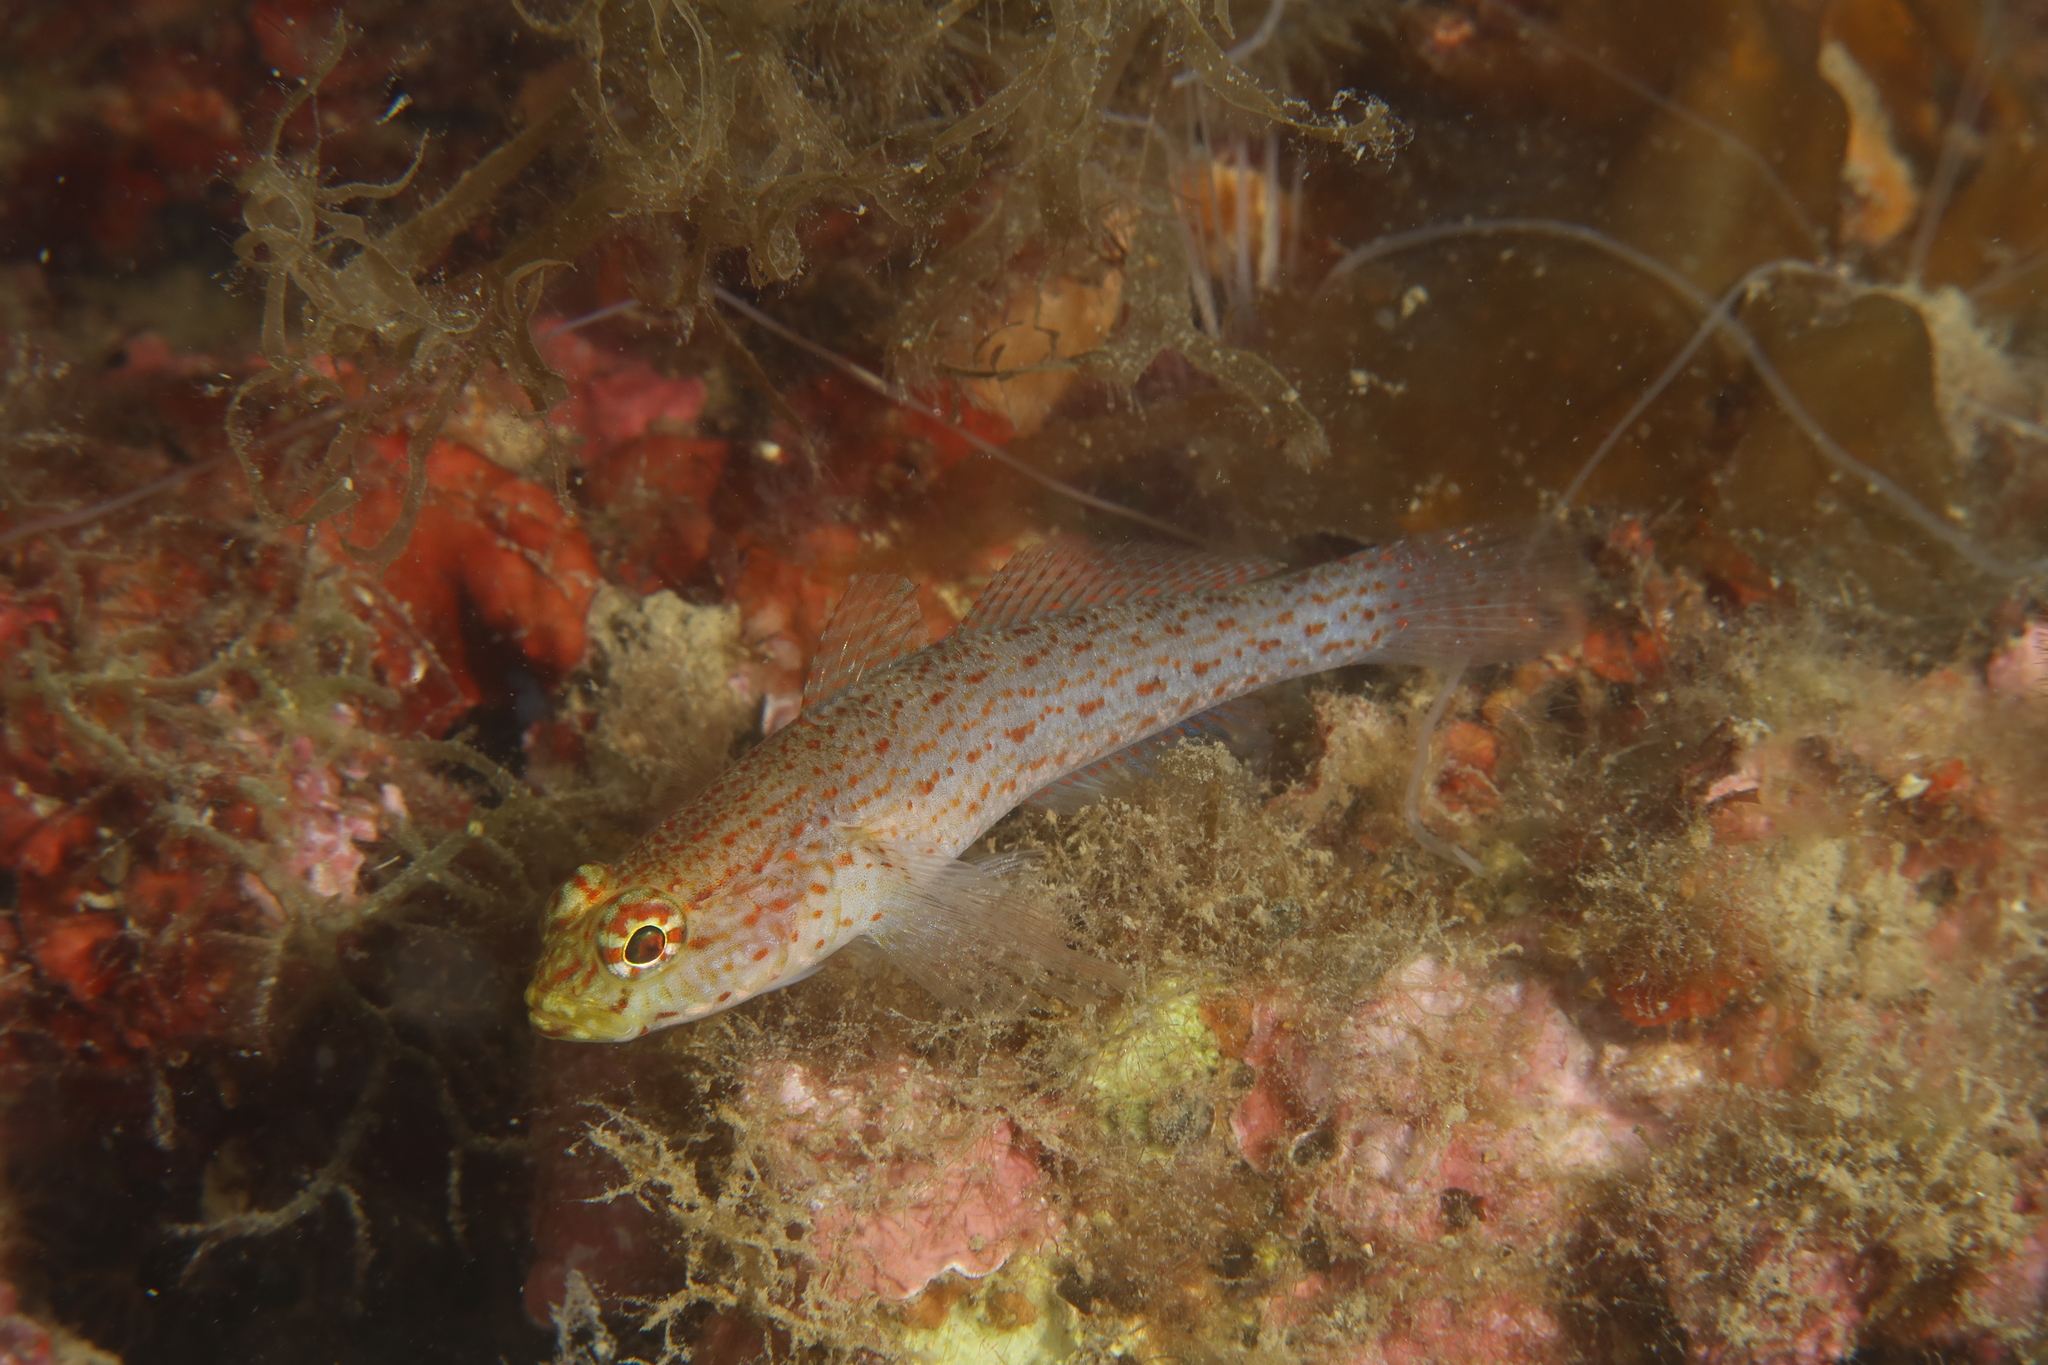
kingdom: Animalia
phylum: Chordata
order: Perciformes
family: Gobiidae
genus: Gobius
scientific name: Gobius xanthocephalus
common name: Golden goby
